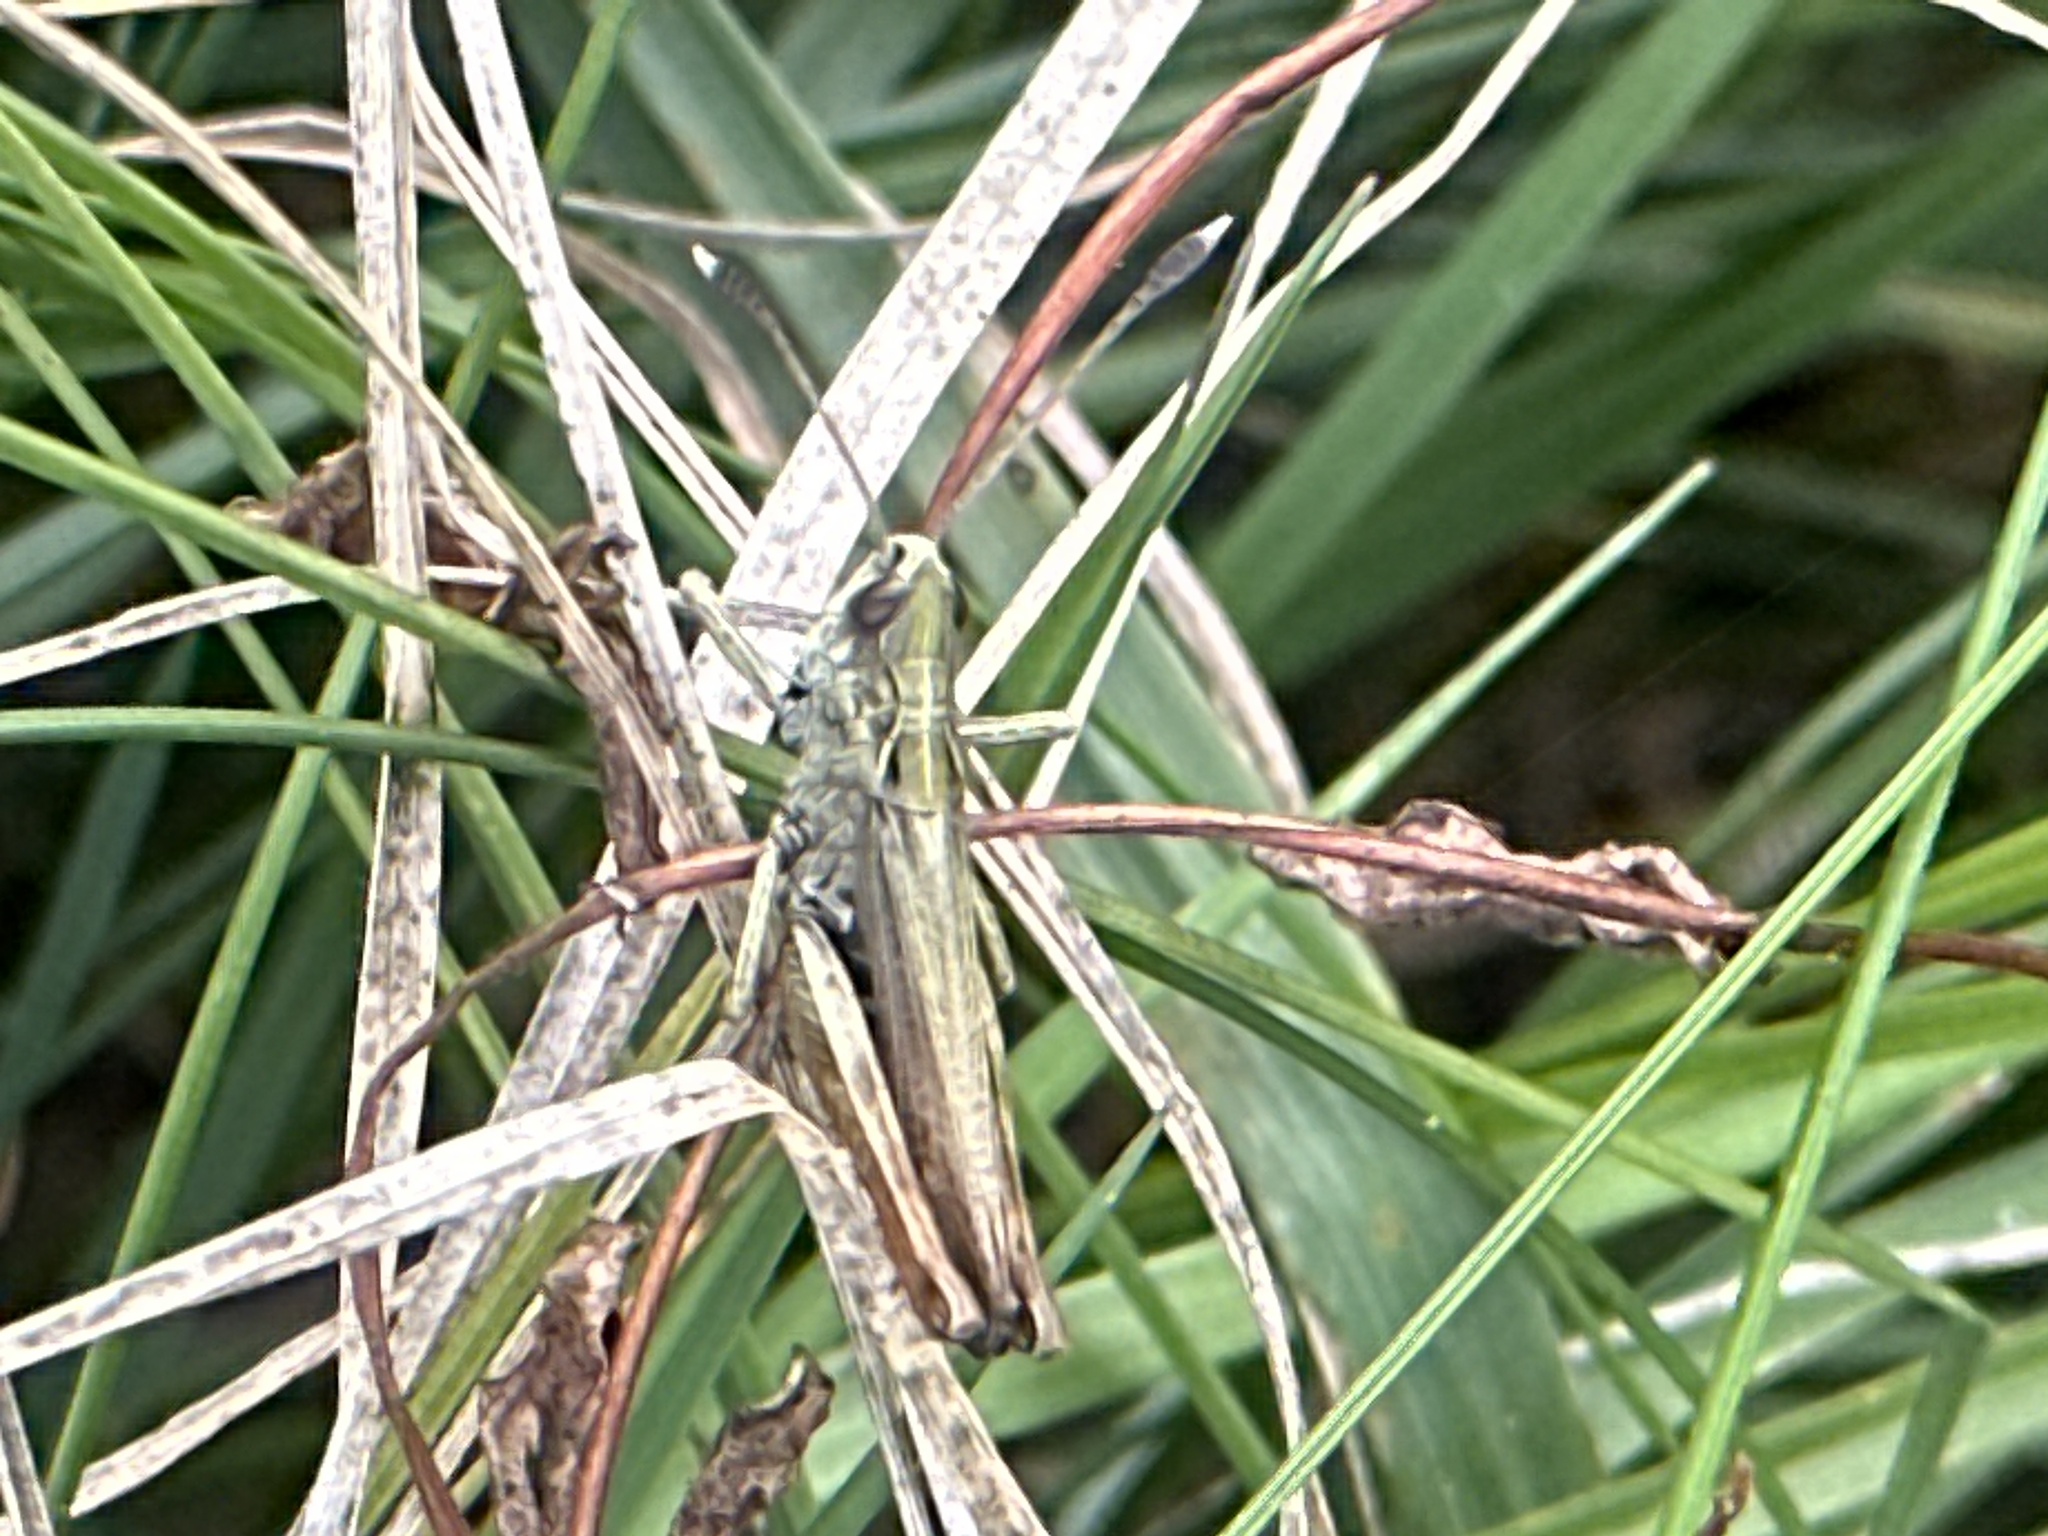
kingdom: Animalia
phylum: Arthropoda
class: Insecta
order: Orthoptera
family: Acrididae
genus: Gomphocerippus
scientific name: Gomphocerippus rufus
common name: Rufous grasshopper
